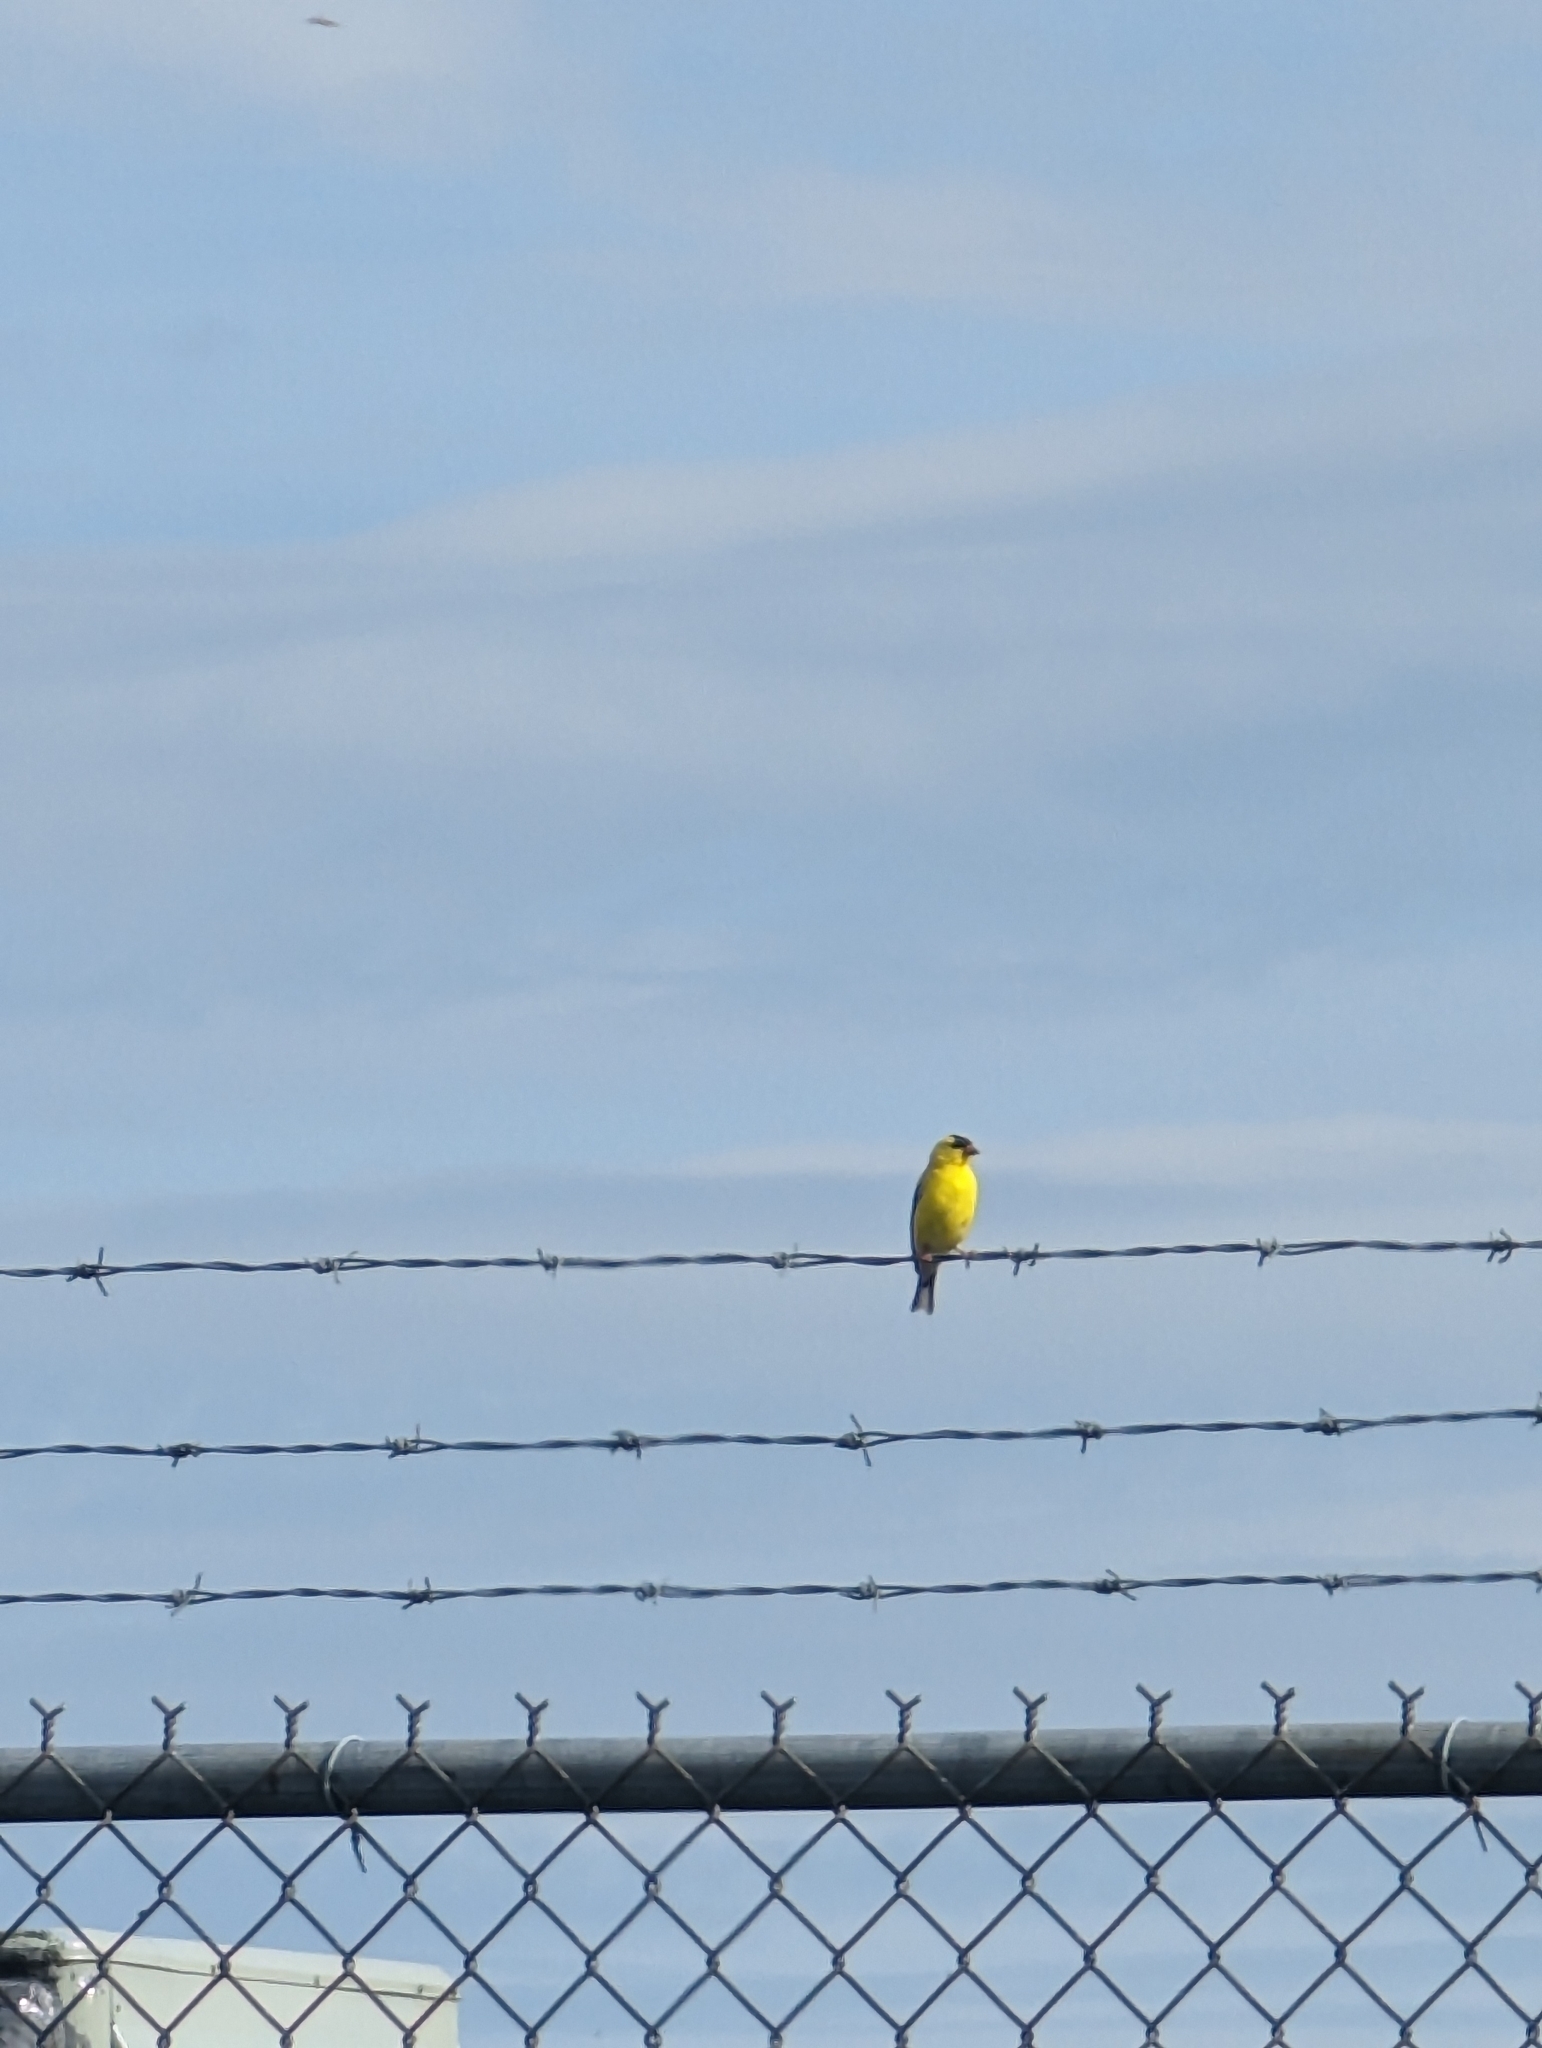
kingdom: Animalia
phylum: Chordata
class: Aves
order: Passeriformes
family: Fringillidae
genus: Spinus
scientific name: Spinus tristis
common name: American goldfinch
